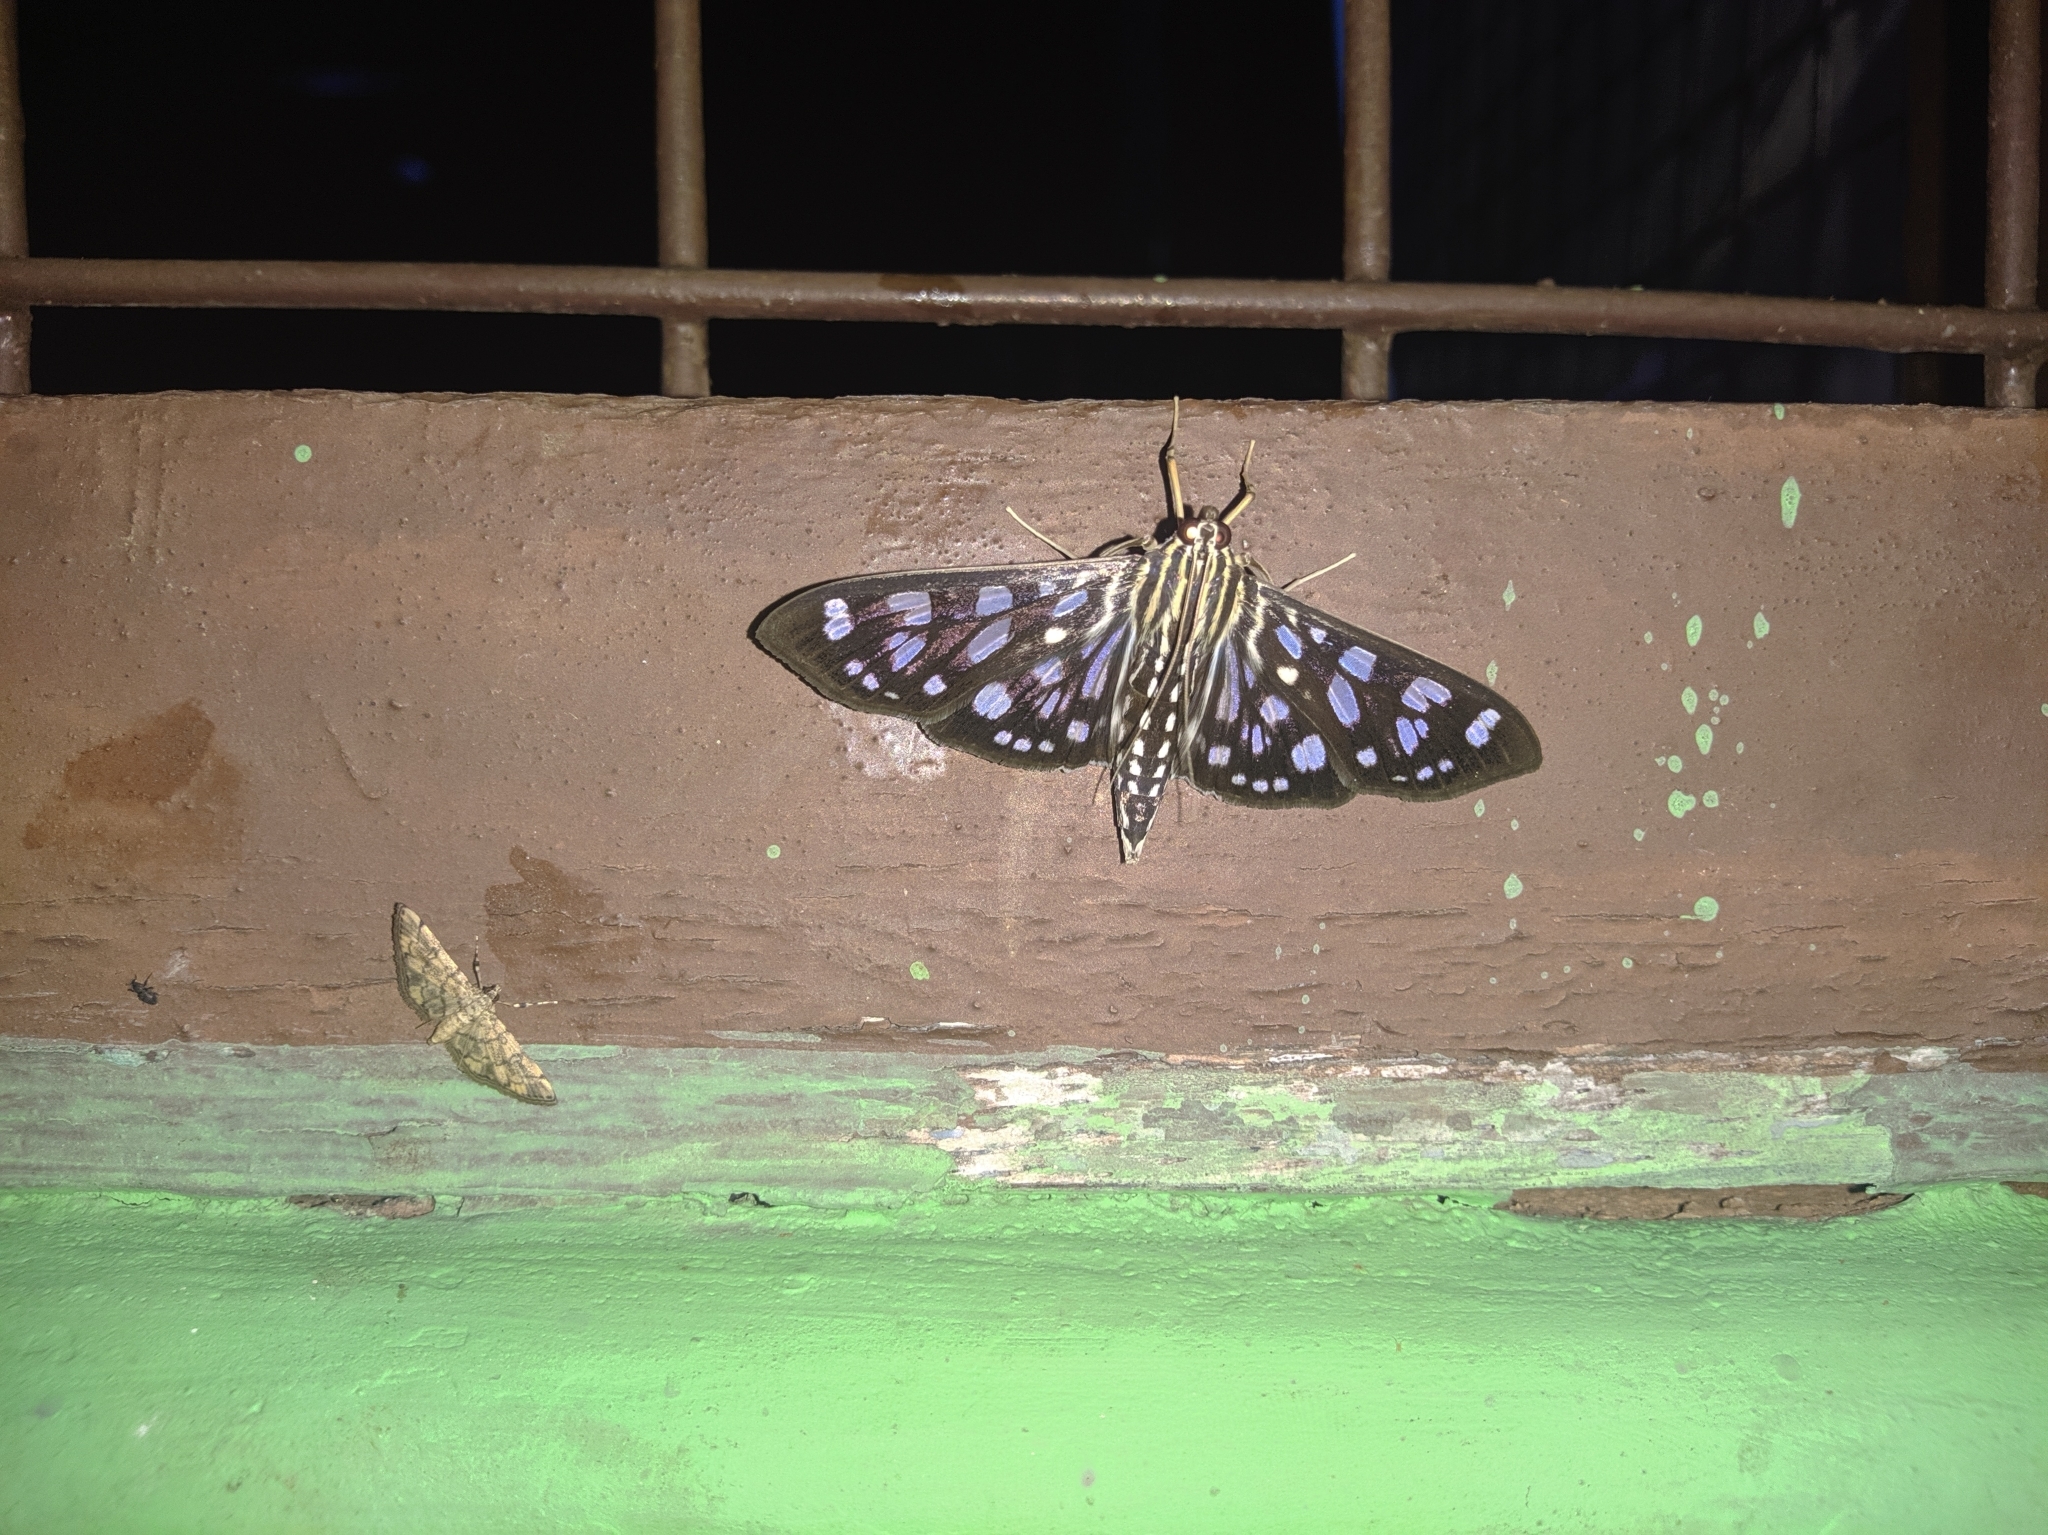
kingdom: Animalia
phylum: Arthropoda
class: Insecta
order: Lepidoptera
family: Crambidae
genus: Pygospila
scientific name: Pygospila tyres
